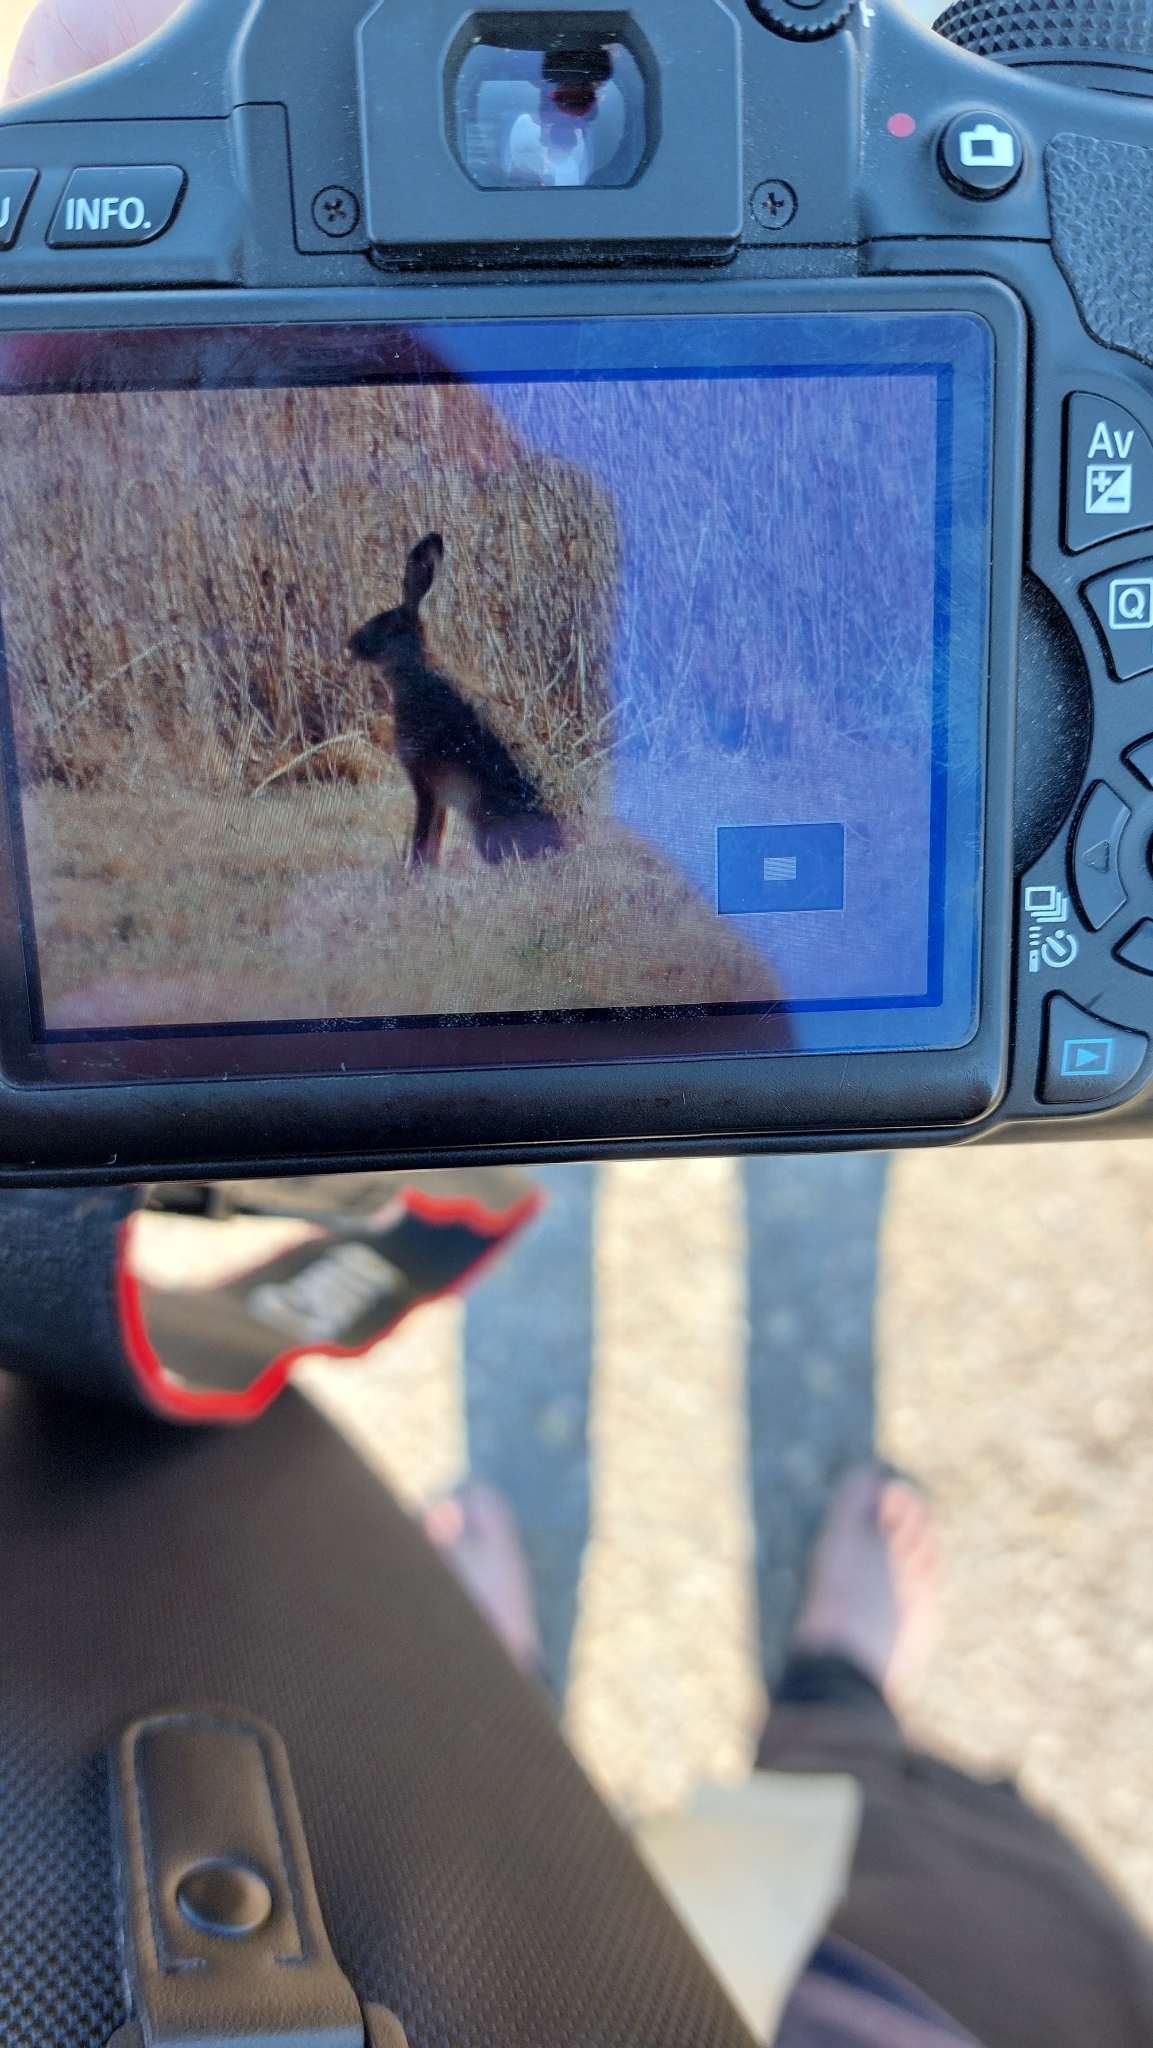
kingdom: Animalia
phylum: Chordata
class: Mammalia
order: Lagomorpha
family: Leporidae
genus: Lepus
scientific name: Lepus europaeus
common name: European hare
